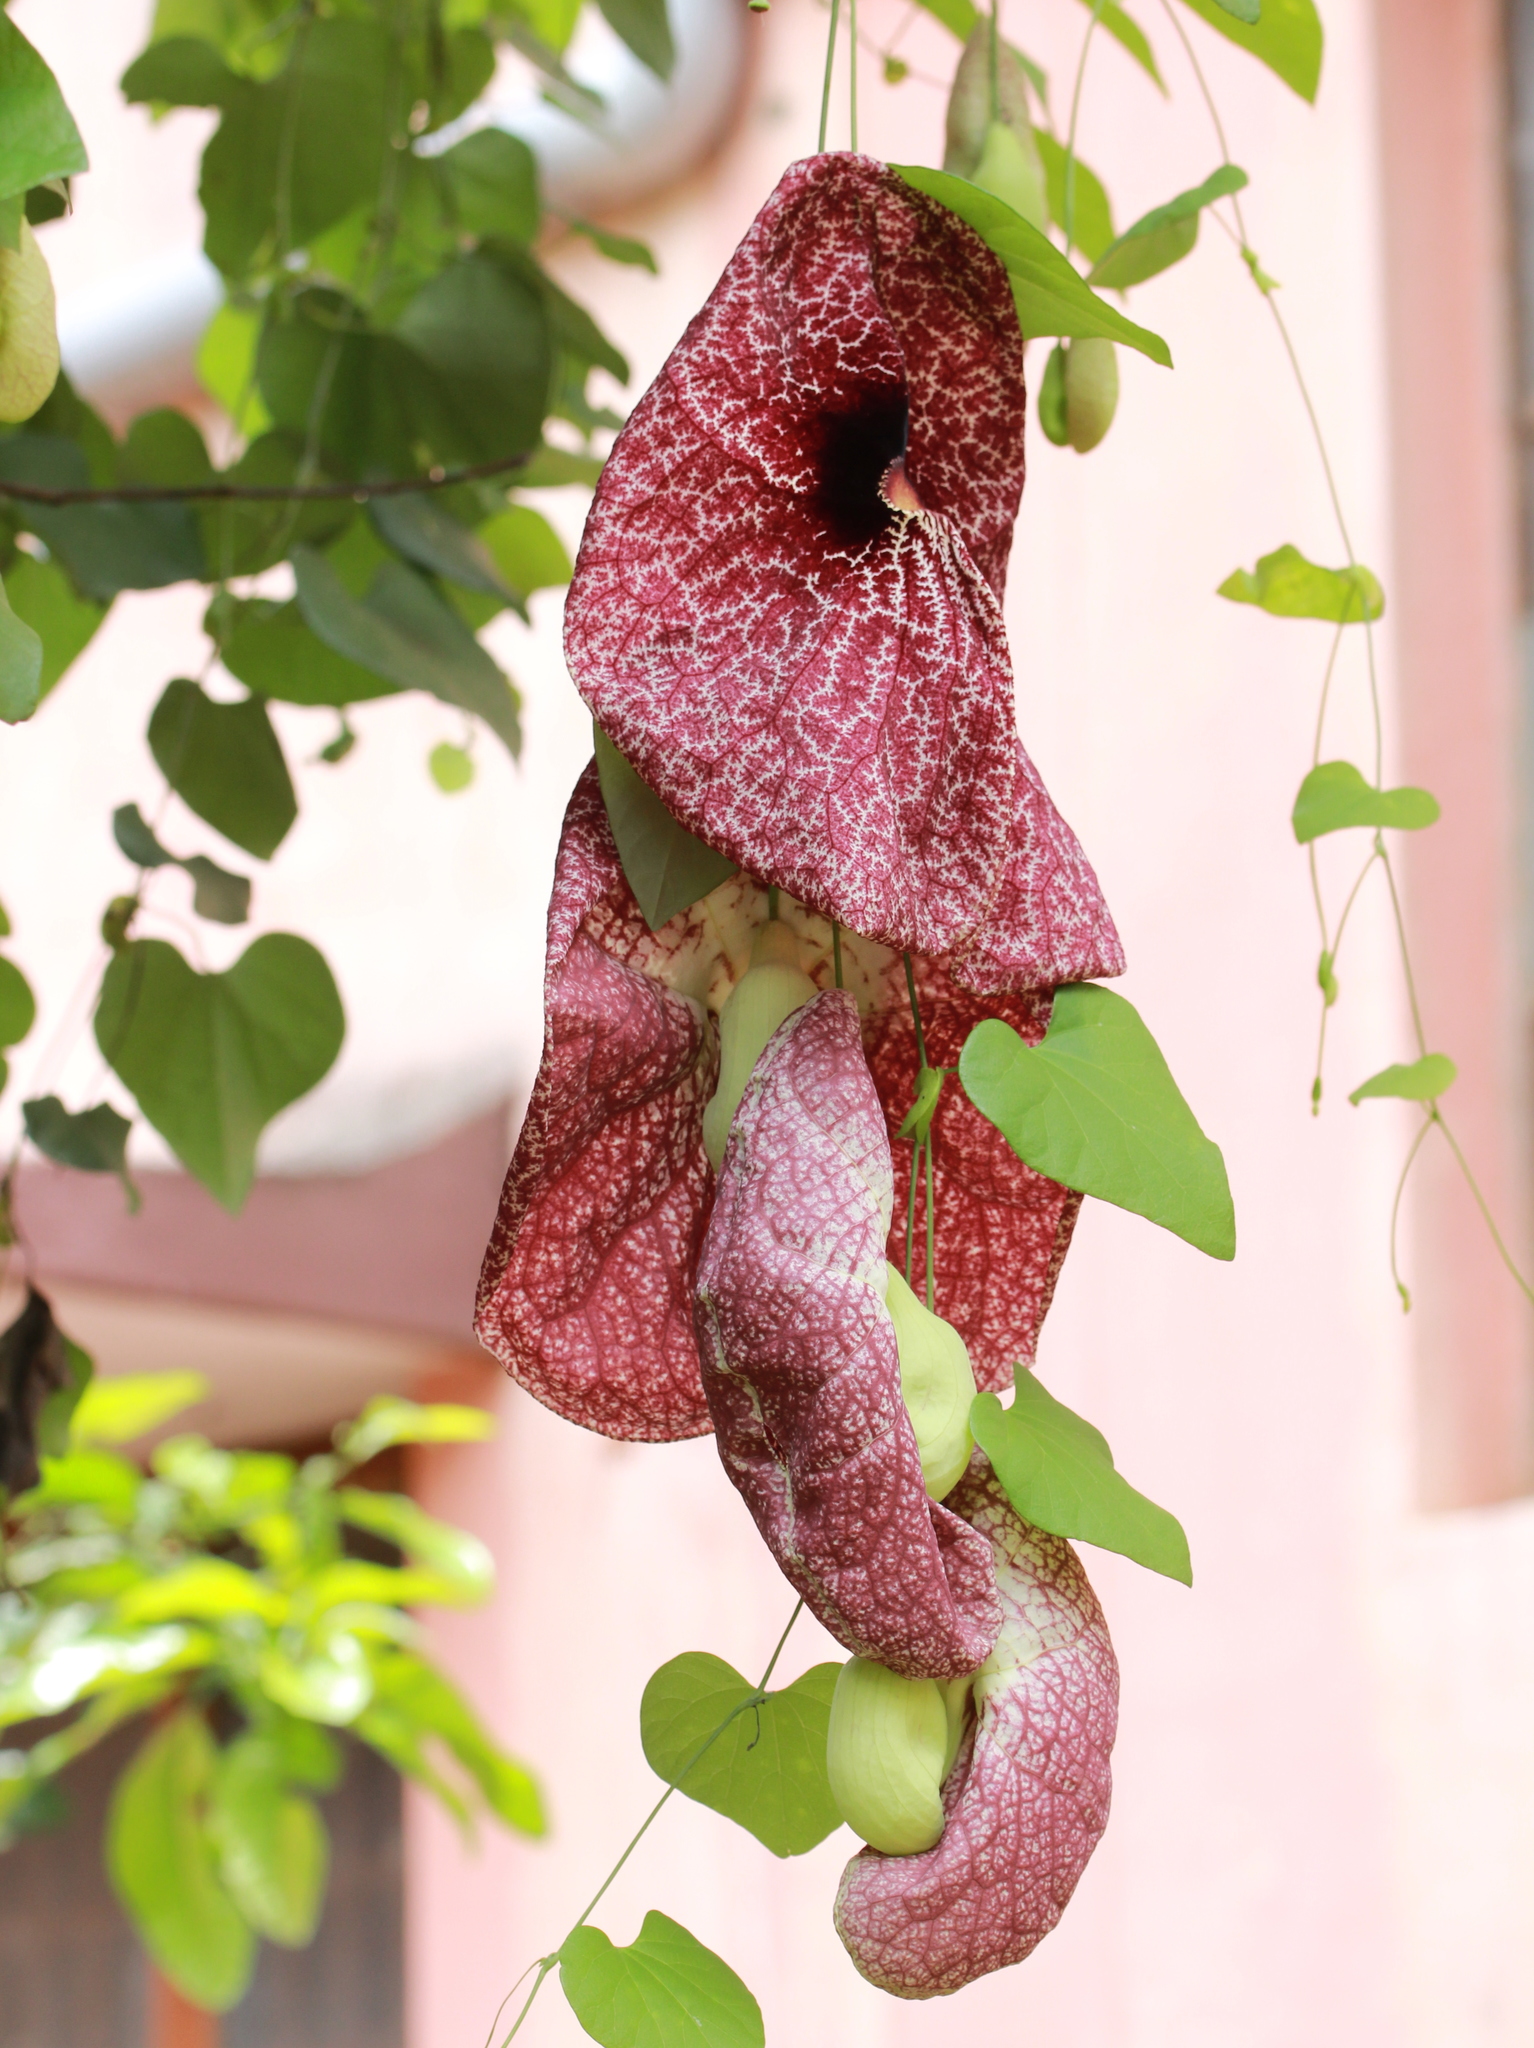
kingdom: Plantae
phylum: Tracheophyta
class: Magnoliopsida
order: Piperales
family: Aristolochiaceae
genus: Aristolochia
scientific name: Aristolochia gigantea
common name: Duckflower
